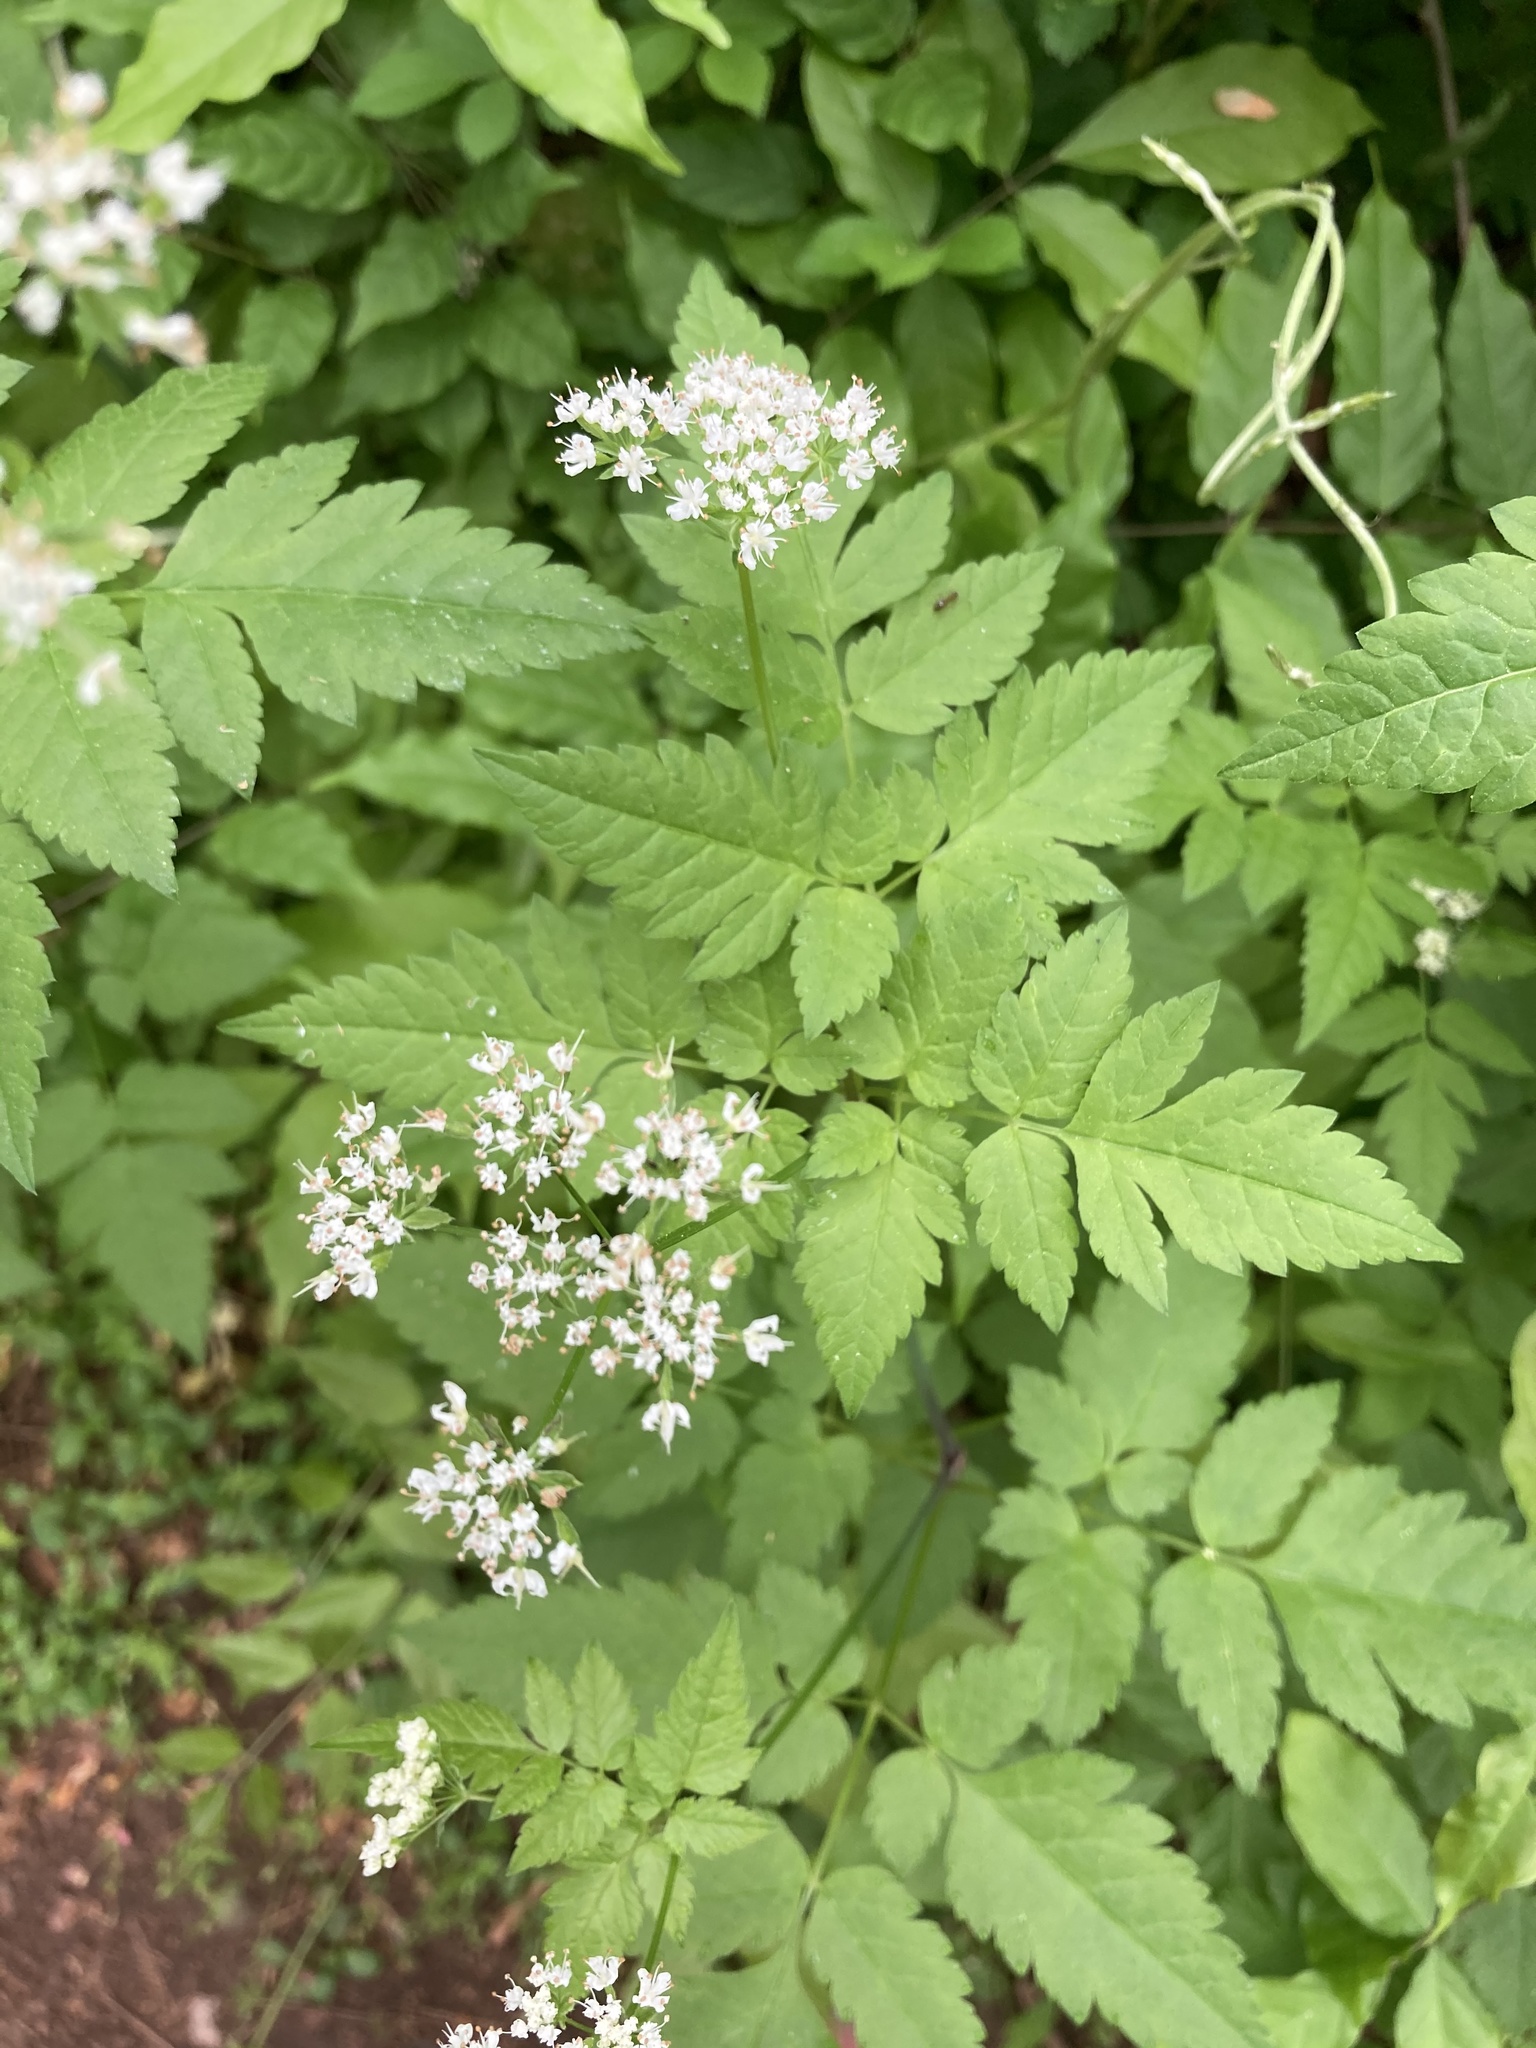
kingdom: Plantae
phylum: Tracheophyta
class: Magnoliopsida
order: Apiales
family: Apiaceae
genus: Osmorhiza
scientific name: Osmorhiza longistylis
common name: Smooth sweet cicely
